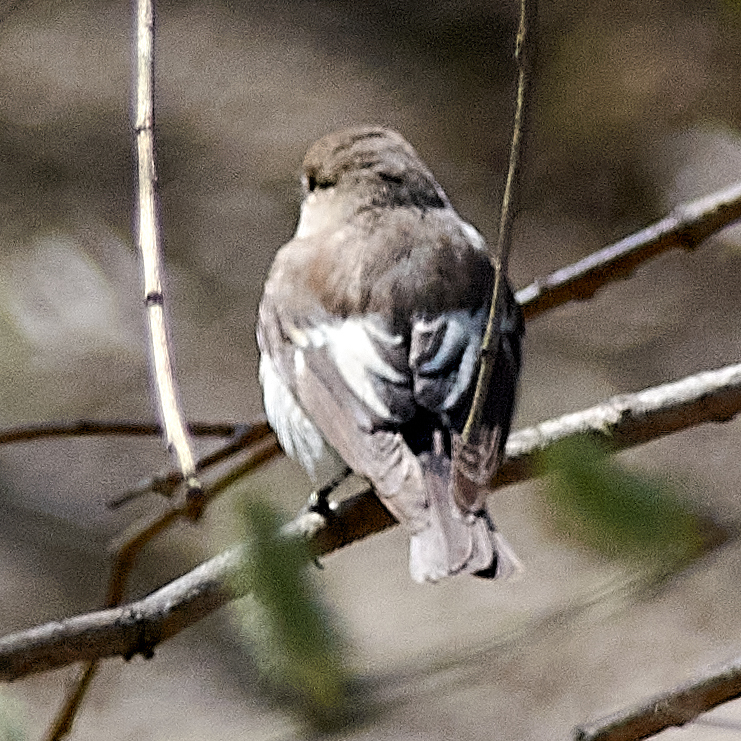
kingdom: Animalia
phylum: Chordata
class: Aves
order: Passeriformes
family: Muscicapidae
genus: Ficedula
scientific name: Ficedula hypoleuca
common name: European pied flycatcher
